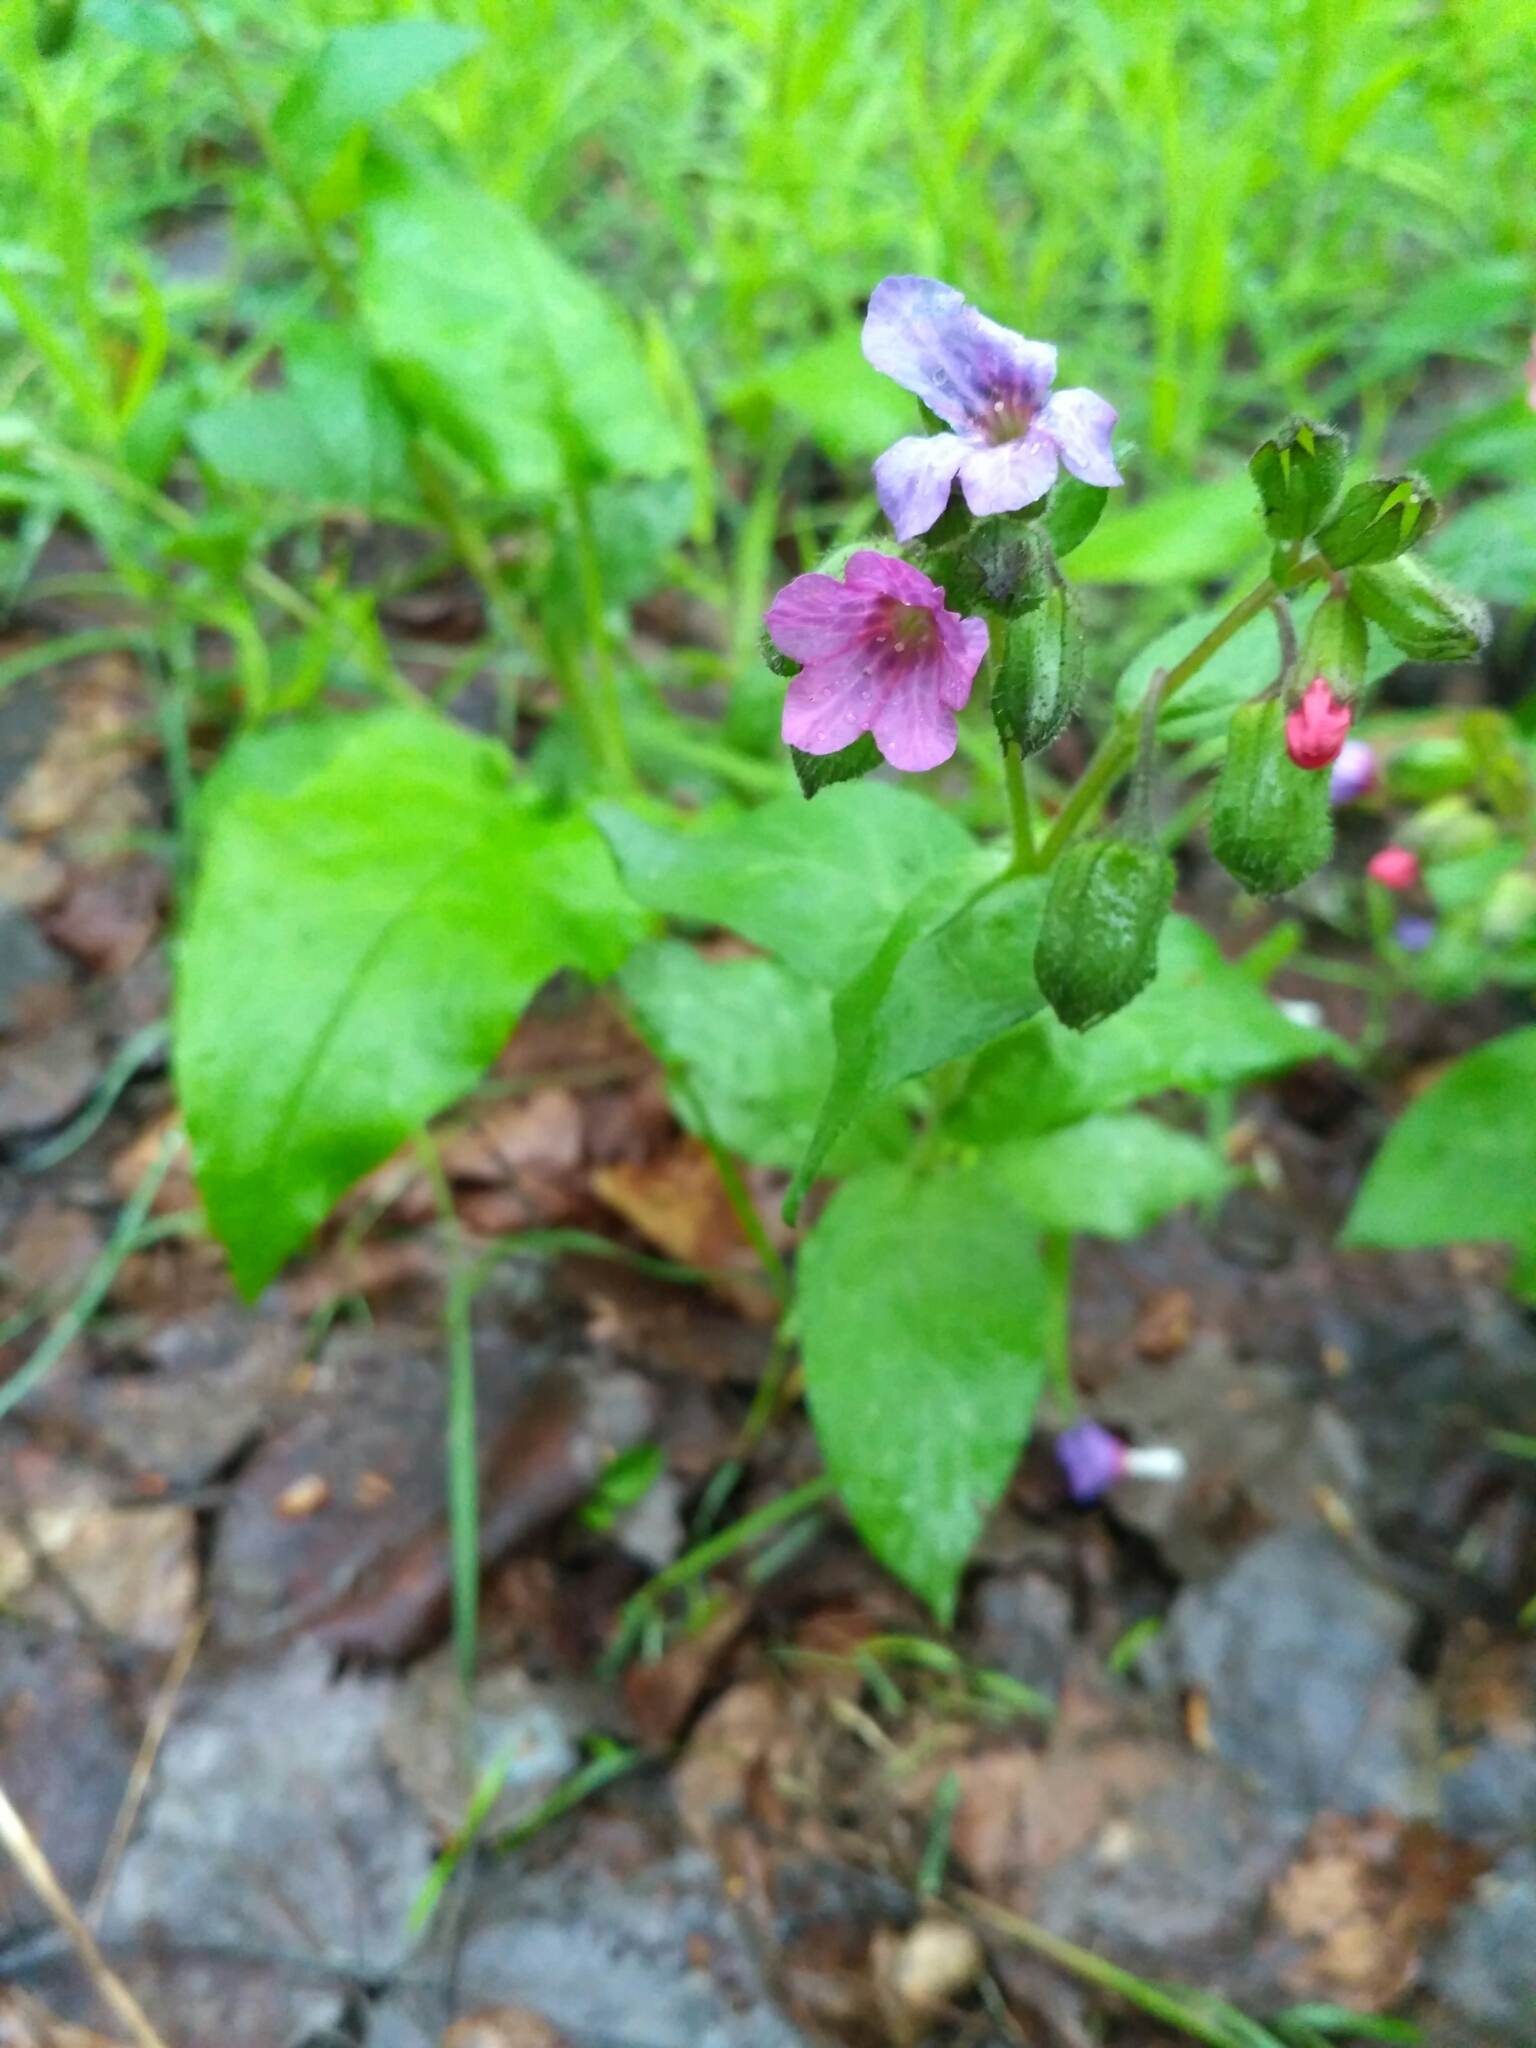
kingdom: Plantae
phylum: Tracheophyta
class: Magnoliopsida
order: Boraginales
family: Boraginaceae
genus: Pulmonaria
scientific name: Pulmonaria obscura
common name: Suffolk lungwort
